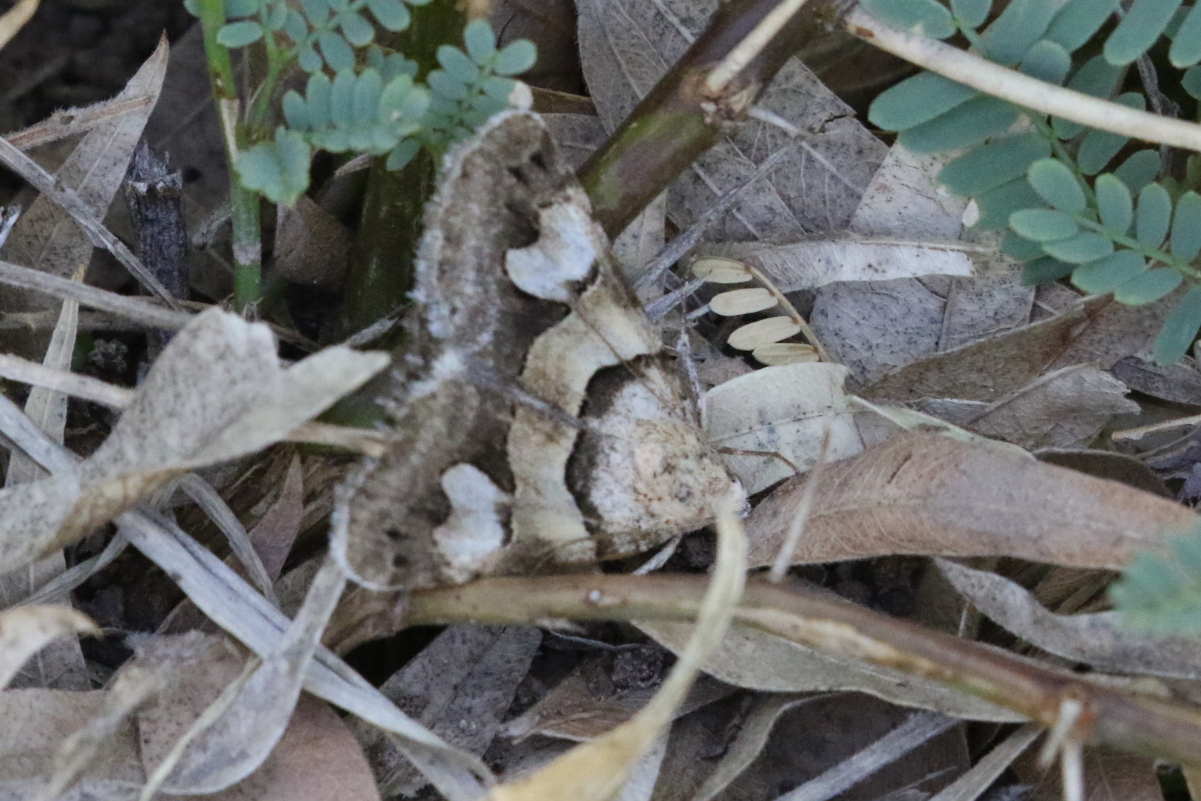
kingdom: Animalia
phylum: Arthropoda
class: Insecta
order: Lepidoptera
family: Erebidae
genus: Drasteria
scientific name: Drasteria pallescens
